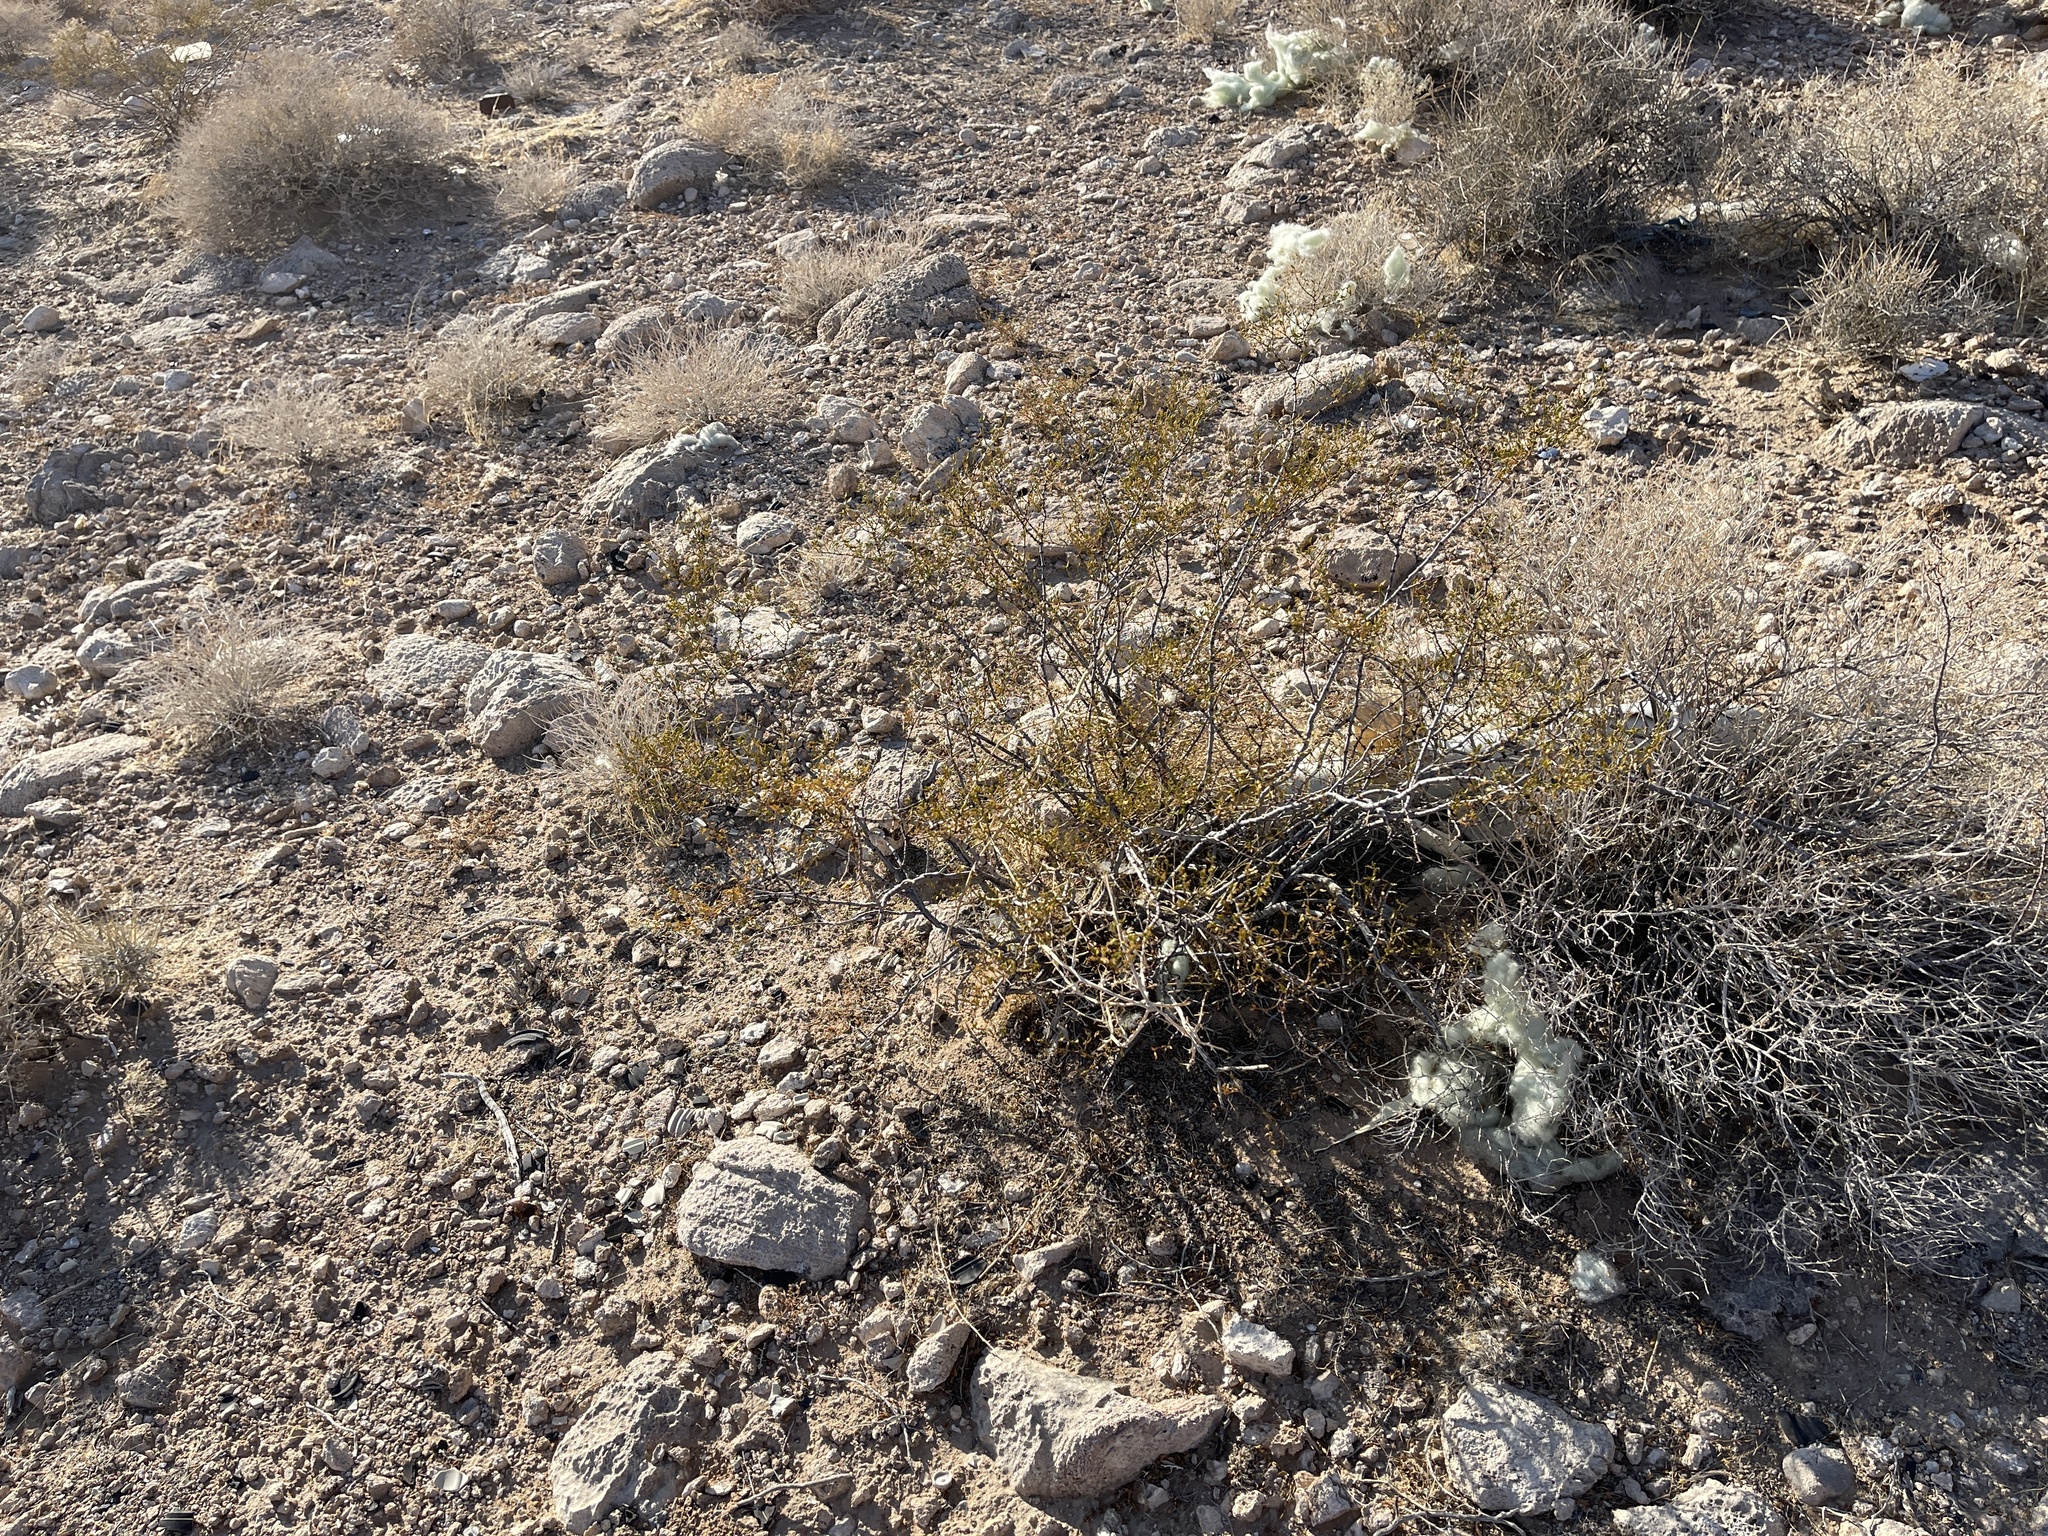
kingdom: Plantae
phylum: Tracheophyta
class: Magnoliopsida
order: Zygophyllales
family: Zygophyllaceae
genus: Larrea
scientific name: Larrea tridentata
